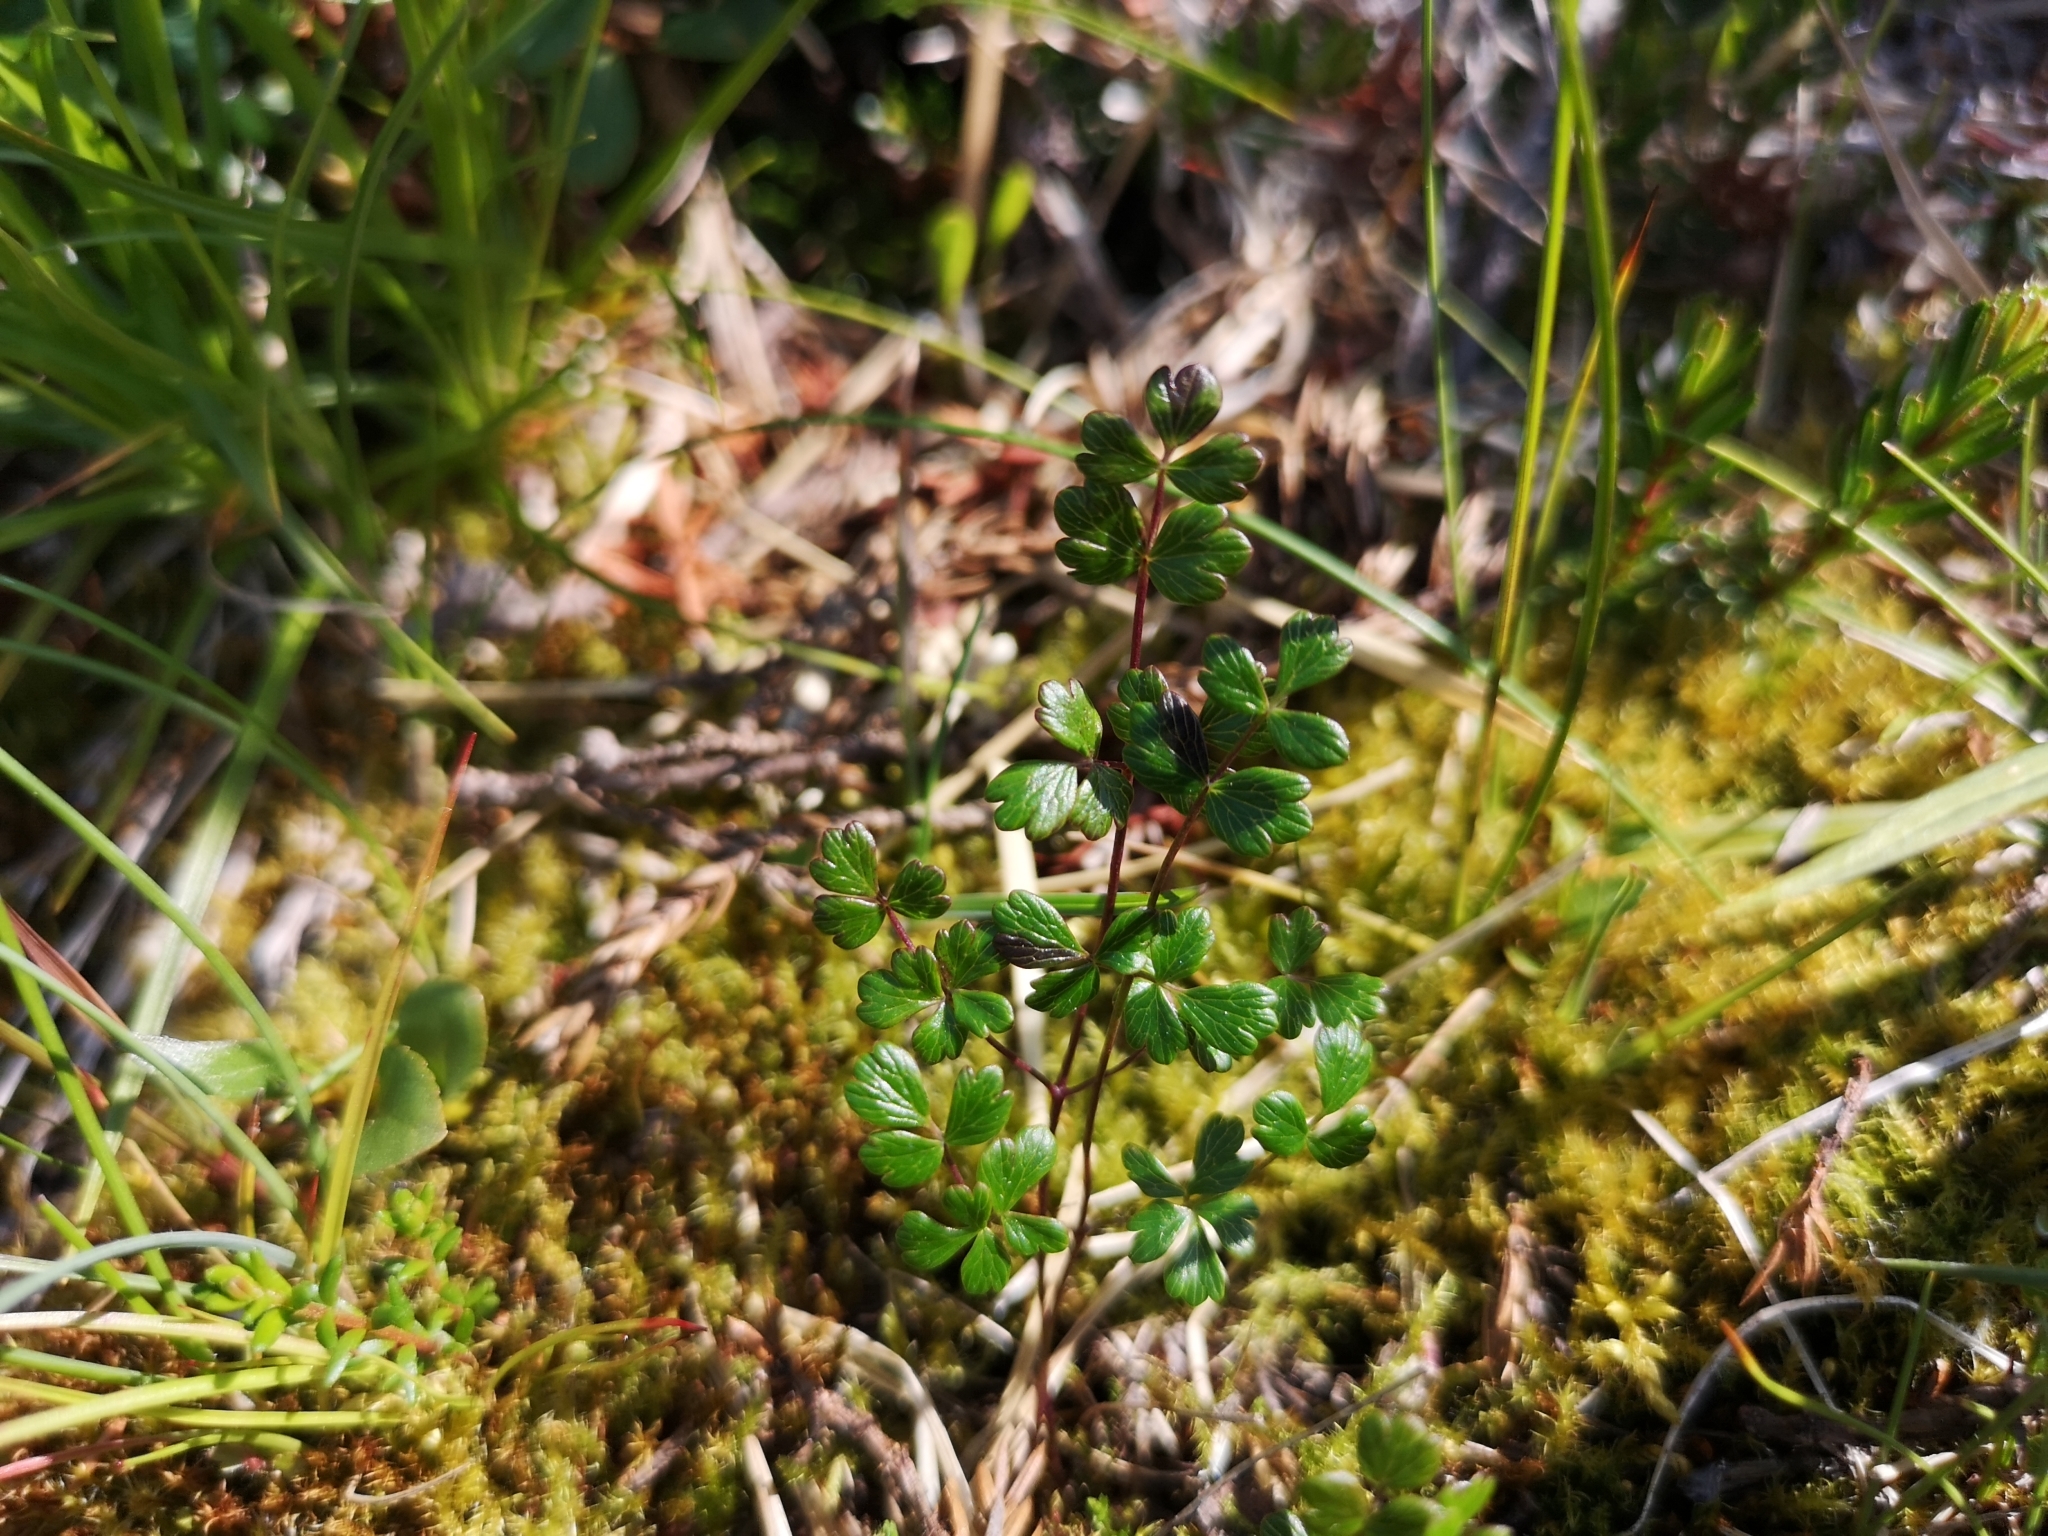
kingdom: Plantae
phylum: Tracheophyta
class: Magnoliopsida
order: Ranunculales
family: Ranunculaceae
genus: Thalictrum
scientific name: Thalictrum alpinum
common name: Alpine meadow-rue
